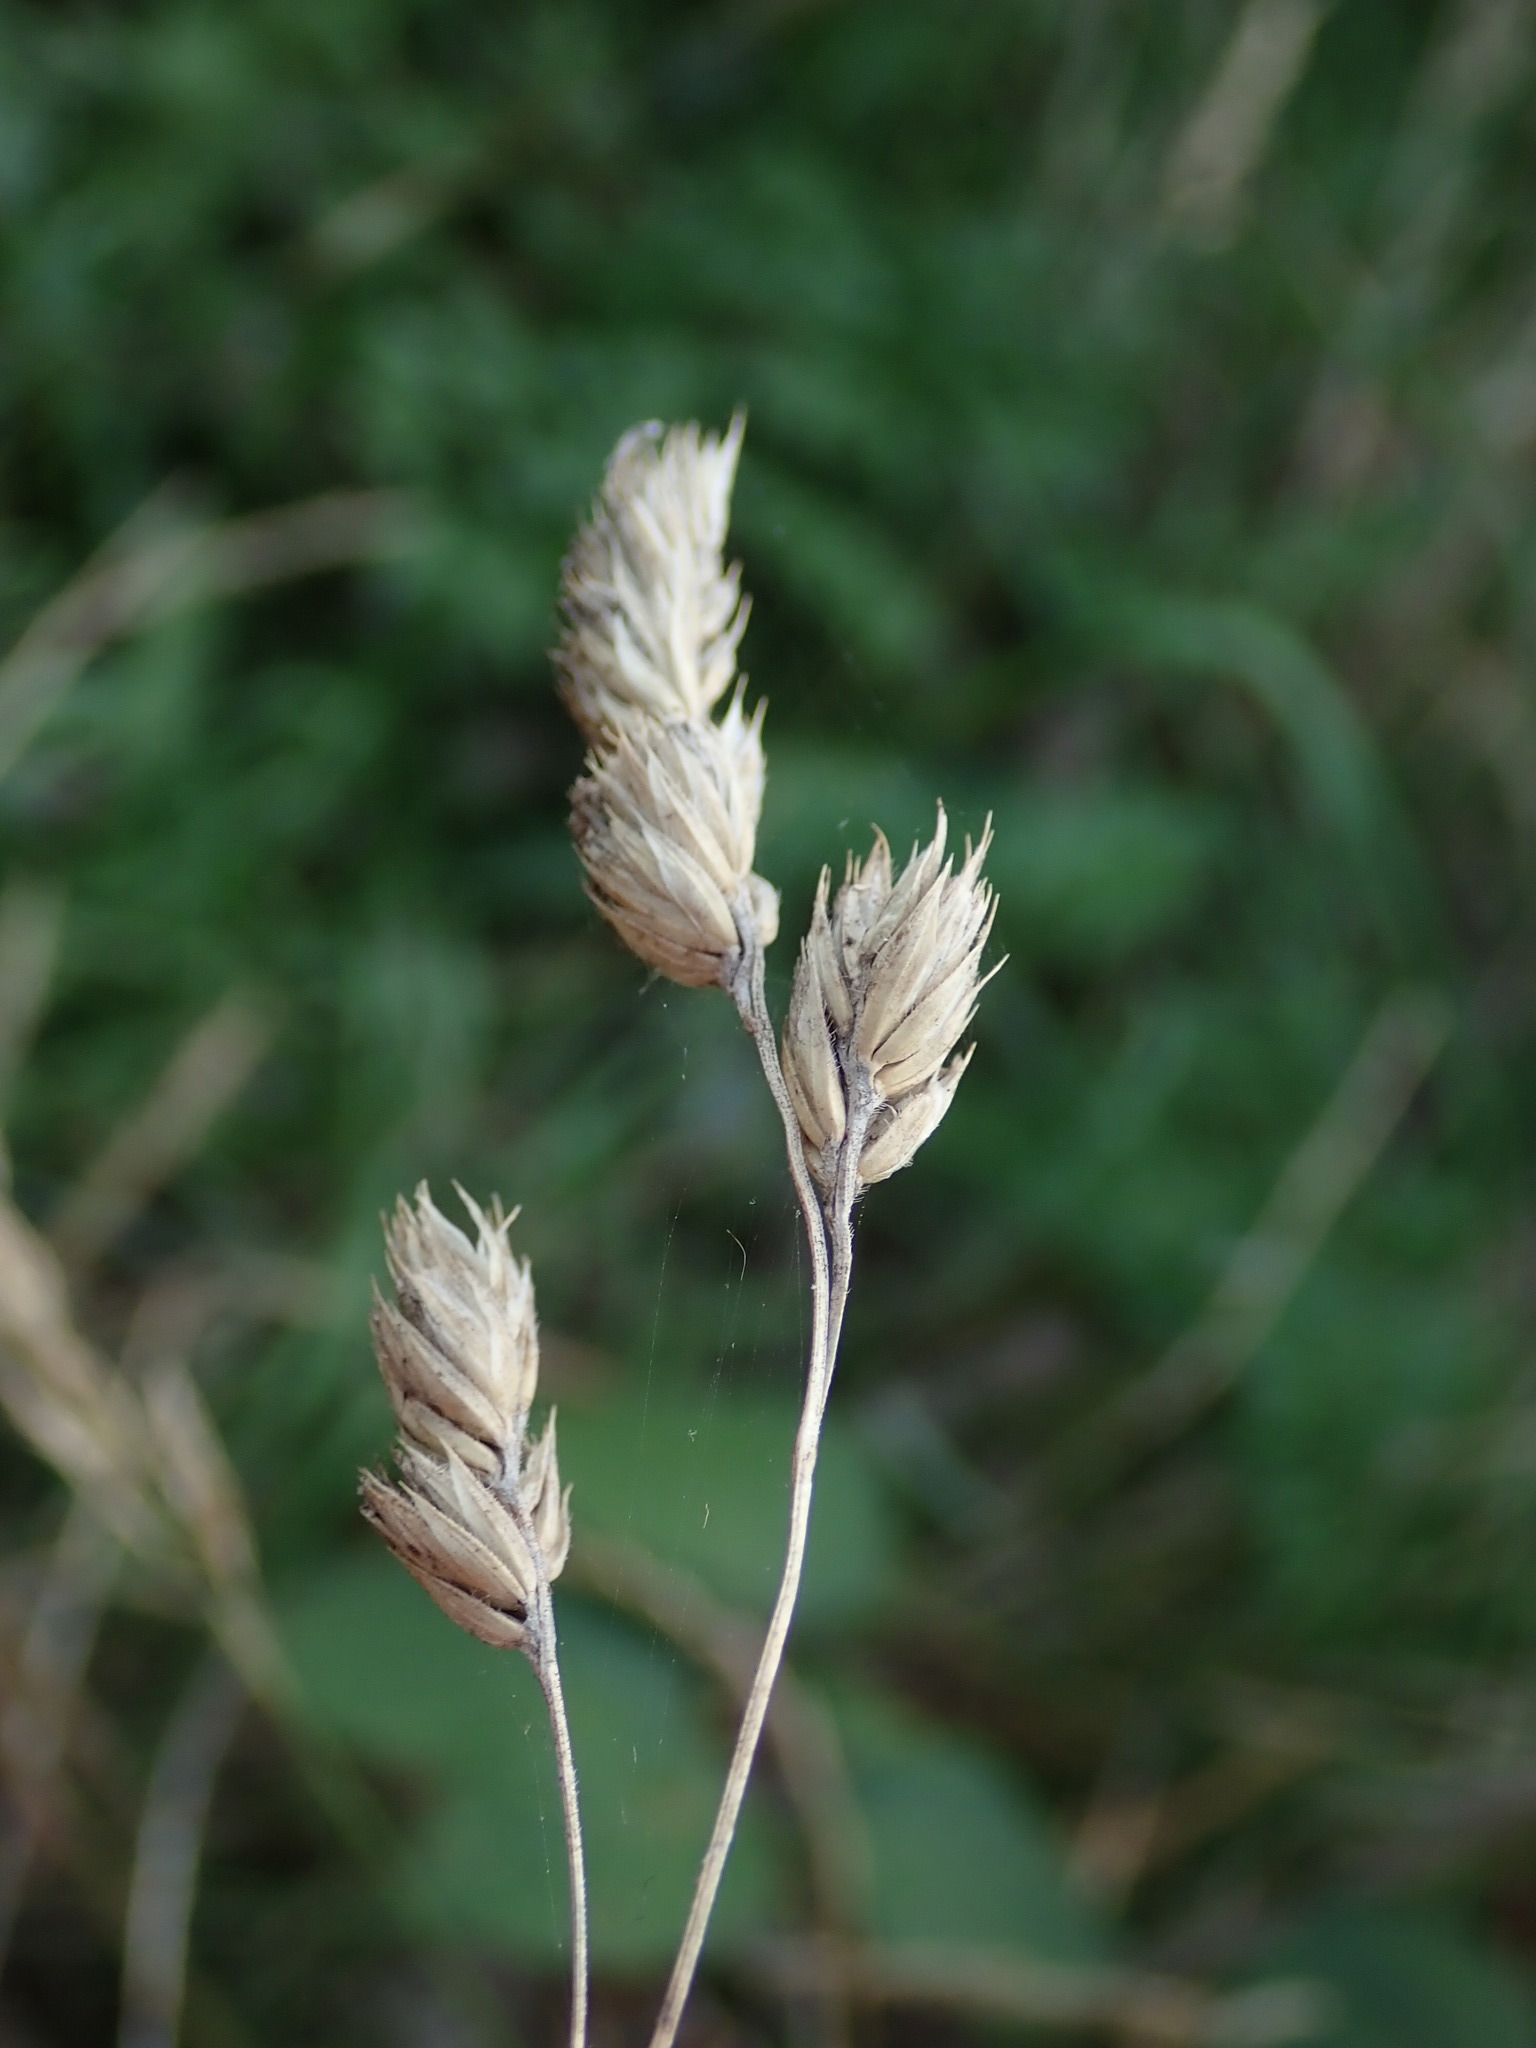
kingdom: Plantae
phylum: Tracheophyta
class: Liliopsida
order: Poales
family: Poaceae
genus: Dactylis
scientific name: Dactylis glomerata
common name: Orchardgrass
